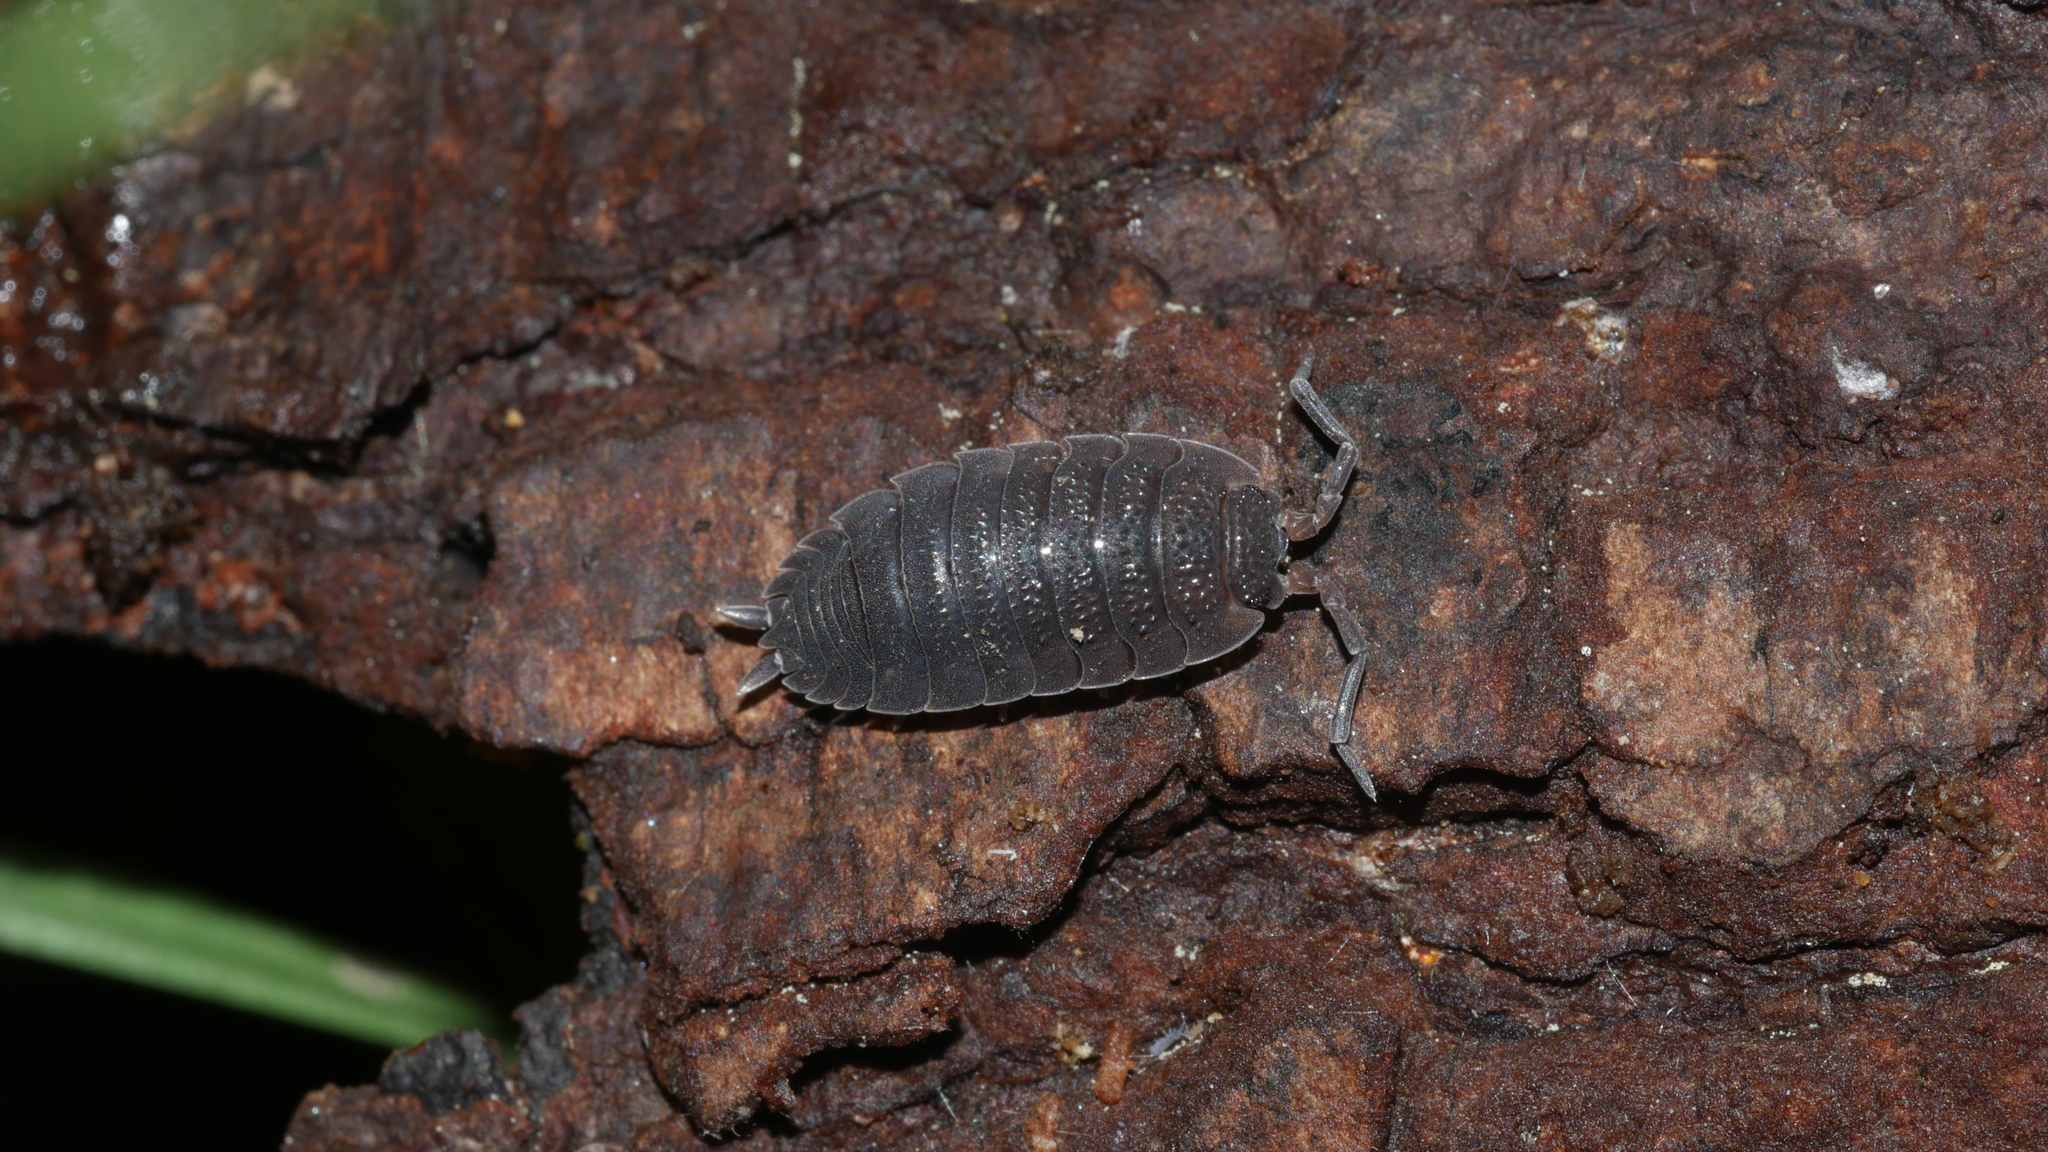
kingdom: Animalia
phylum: Arthropoda
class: Malacostraca
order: Isopoda
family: Porcellionidae
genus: Porcellio
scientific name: Porcellio scaber
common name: Common rough woodlouse
